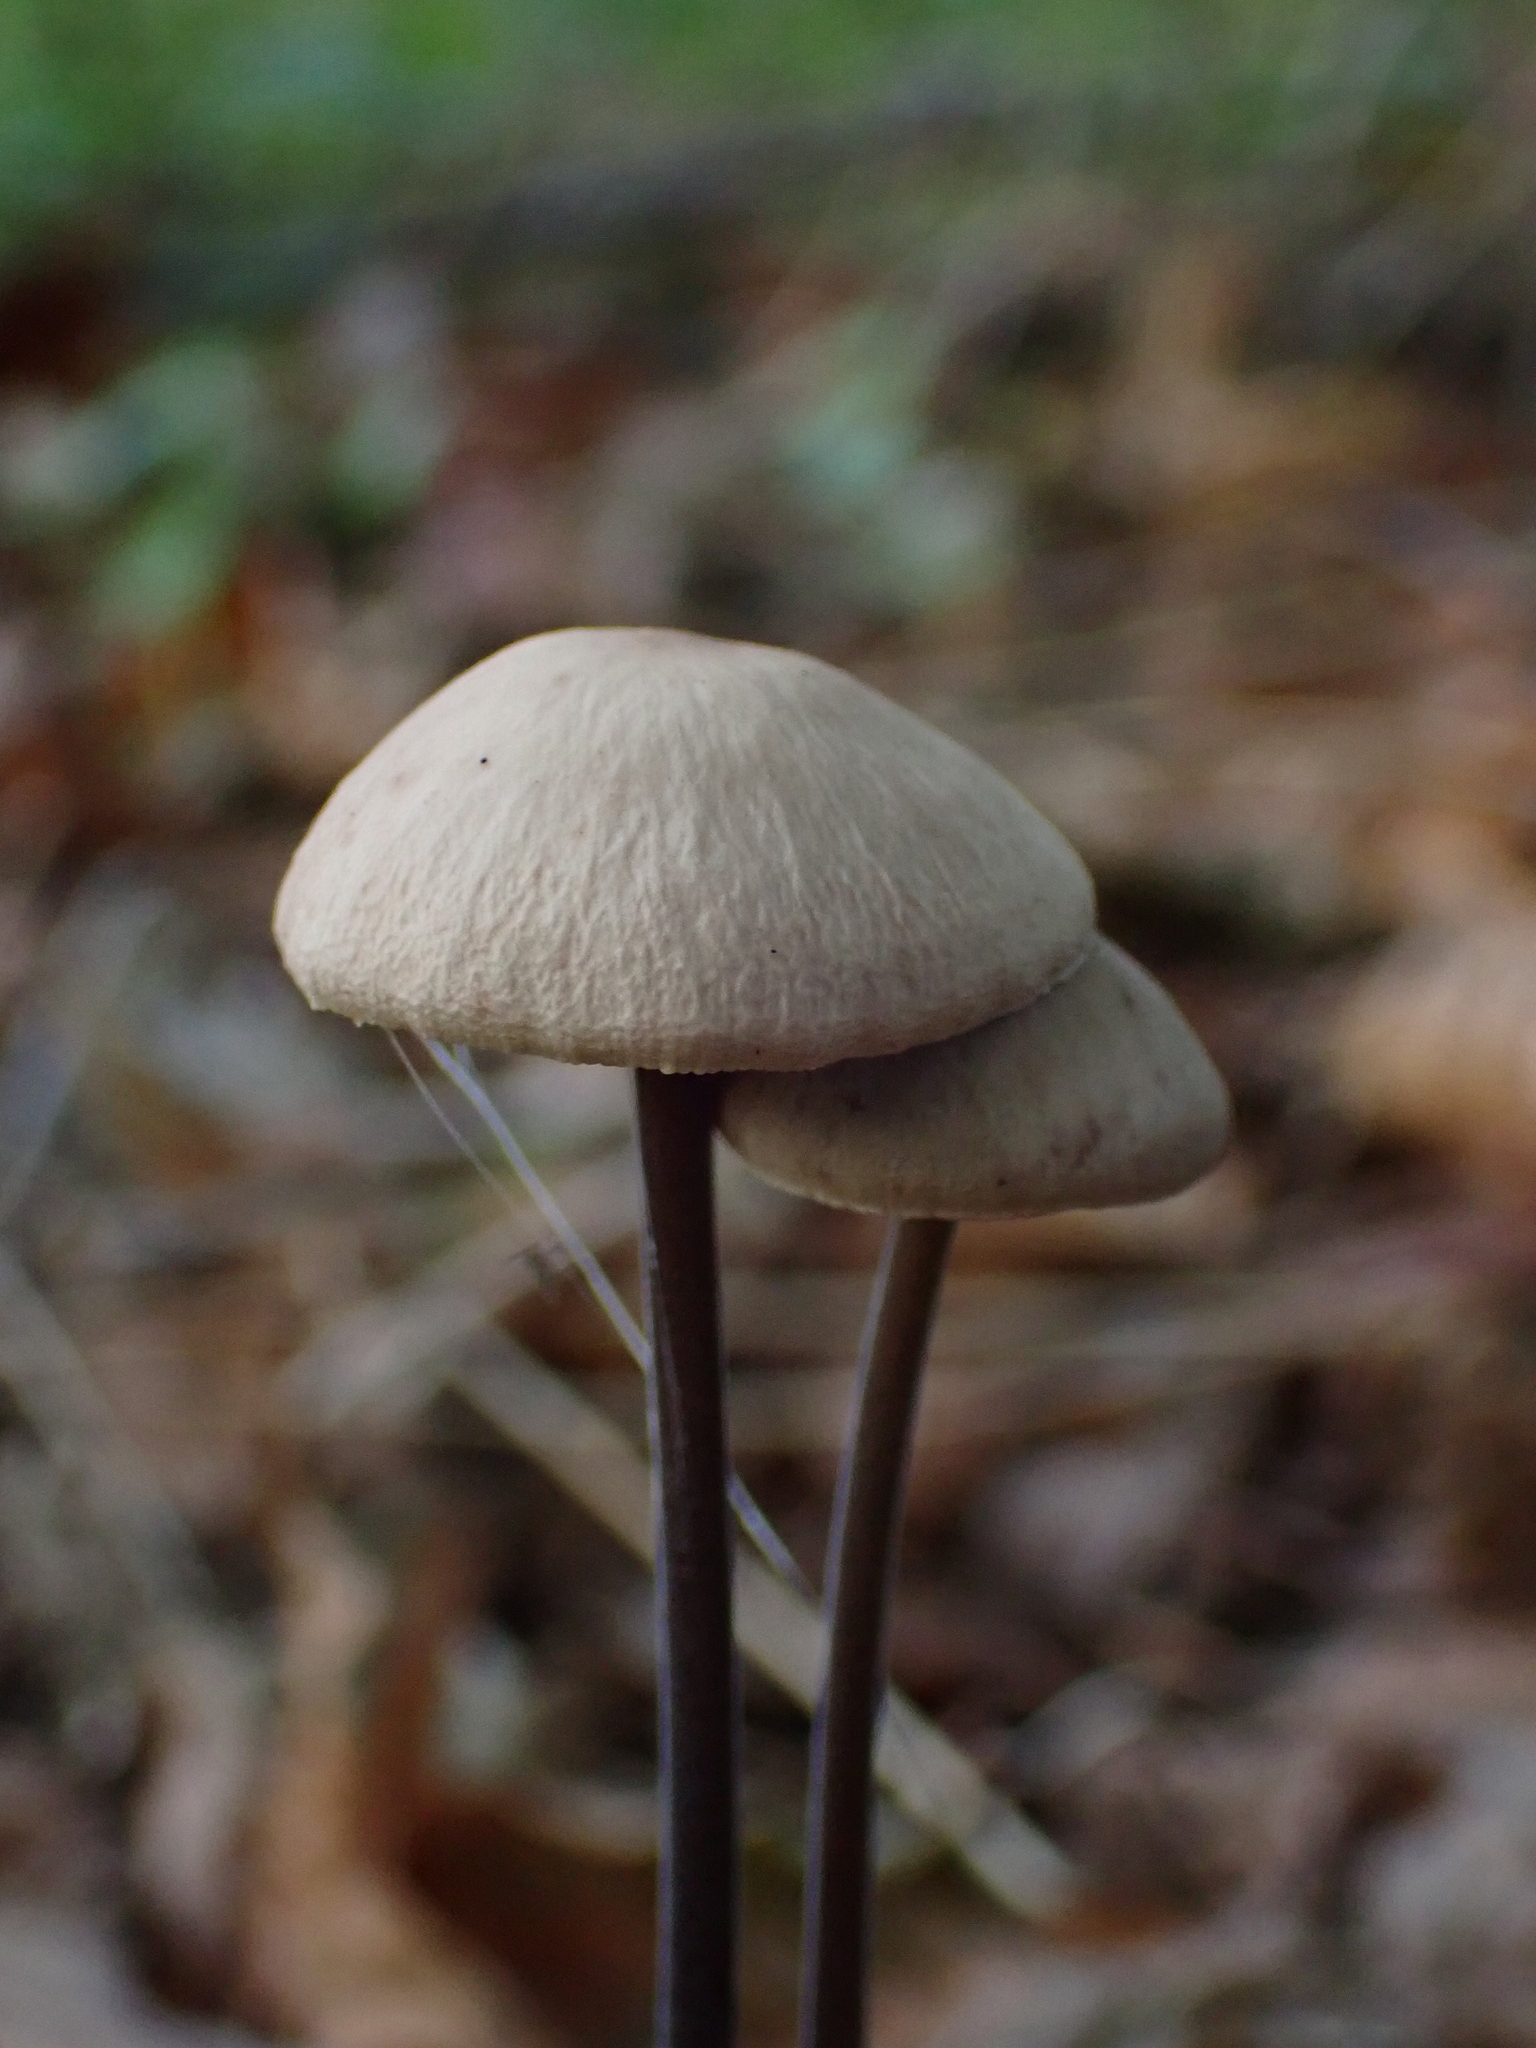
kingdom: Fungi
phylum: Basidiomycota
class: Agaricomycetes
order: Agaricales
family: Omphalotaceae
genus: Mycetinis
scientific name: Mycetinis alliaceus
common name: Garlic parachute
